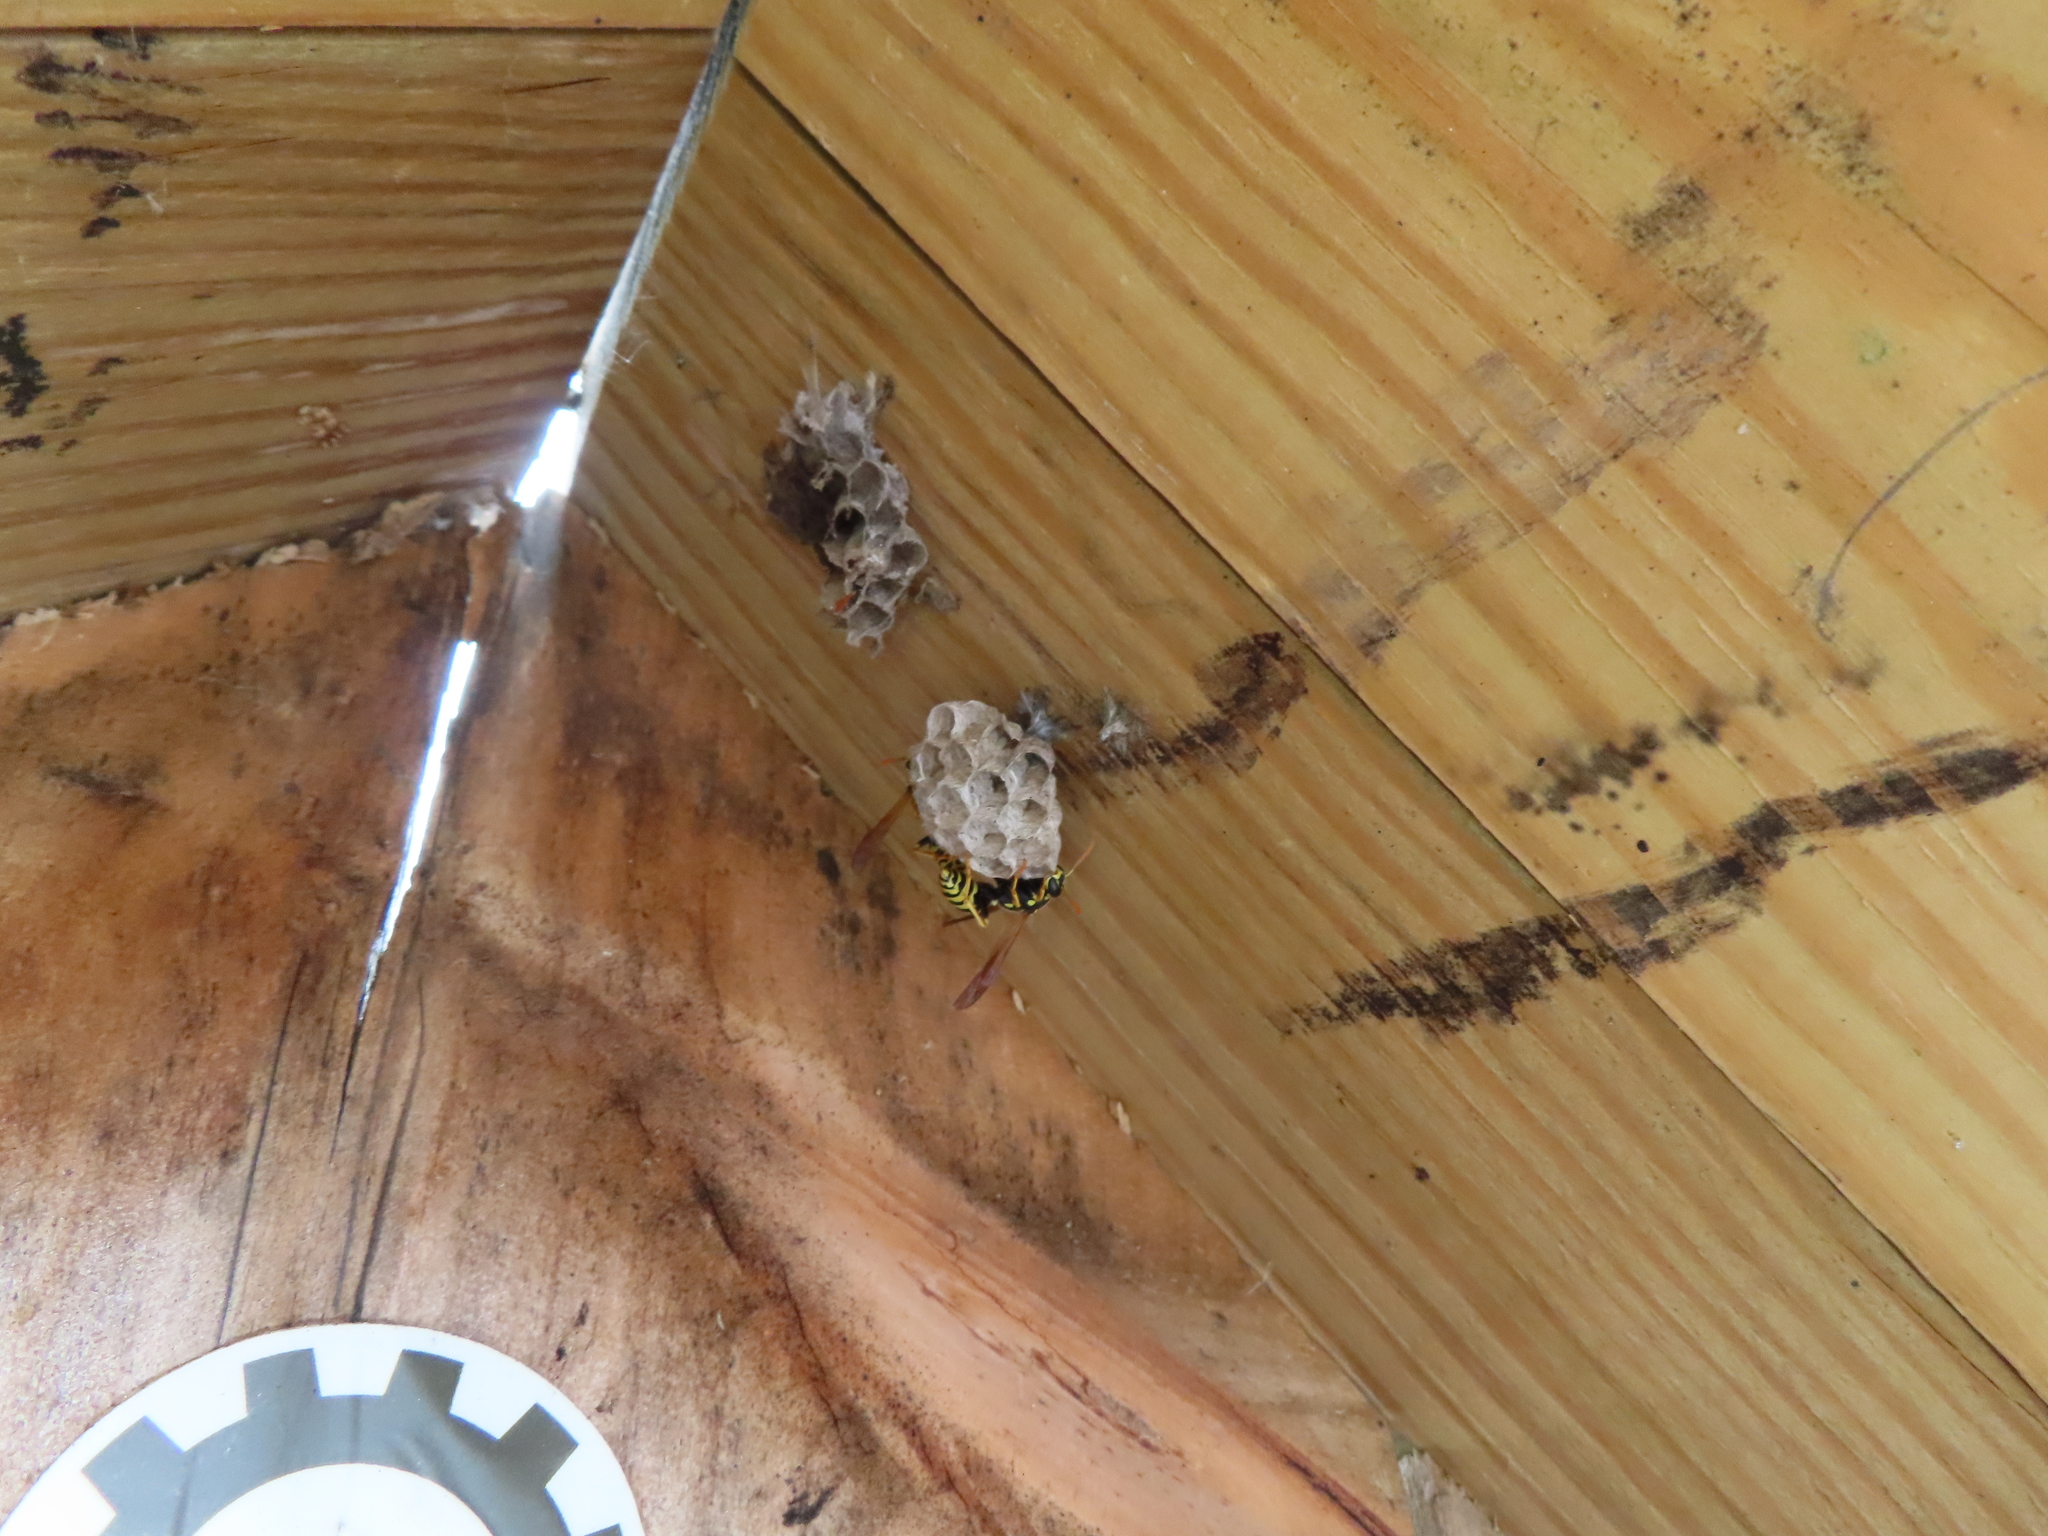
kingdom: Animalia
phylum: Arthropoda
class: Insecta
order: Hymenoptera
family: Eumenidae
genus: Polistes
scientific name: Polistes dominula
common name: Paper wasp
